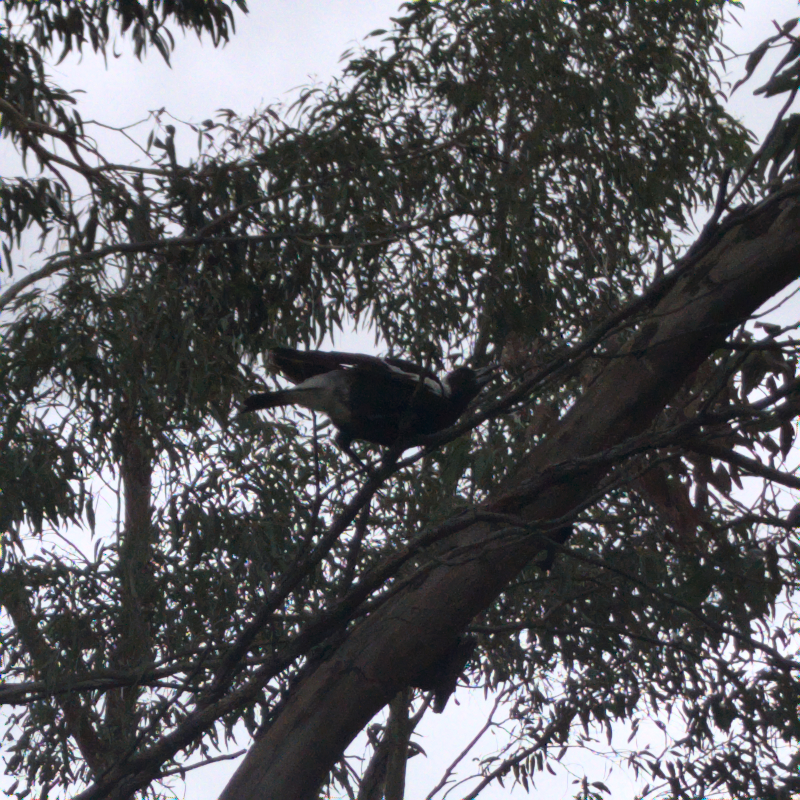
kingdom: Animalia
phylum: Chordata
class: Aves
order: Passeriformes
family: Cracticidae
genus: Gymnorhina
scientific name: Gymnorhina tibicen
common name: Australian magpie
